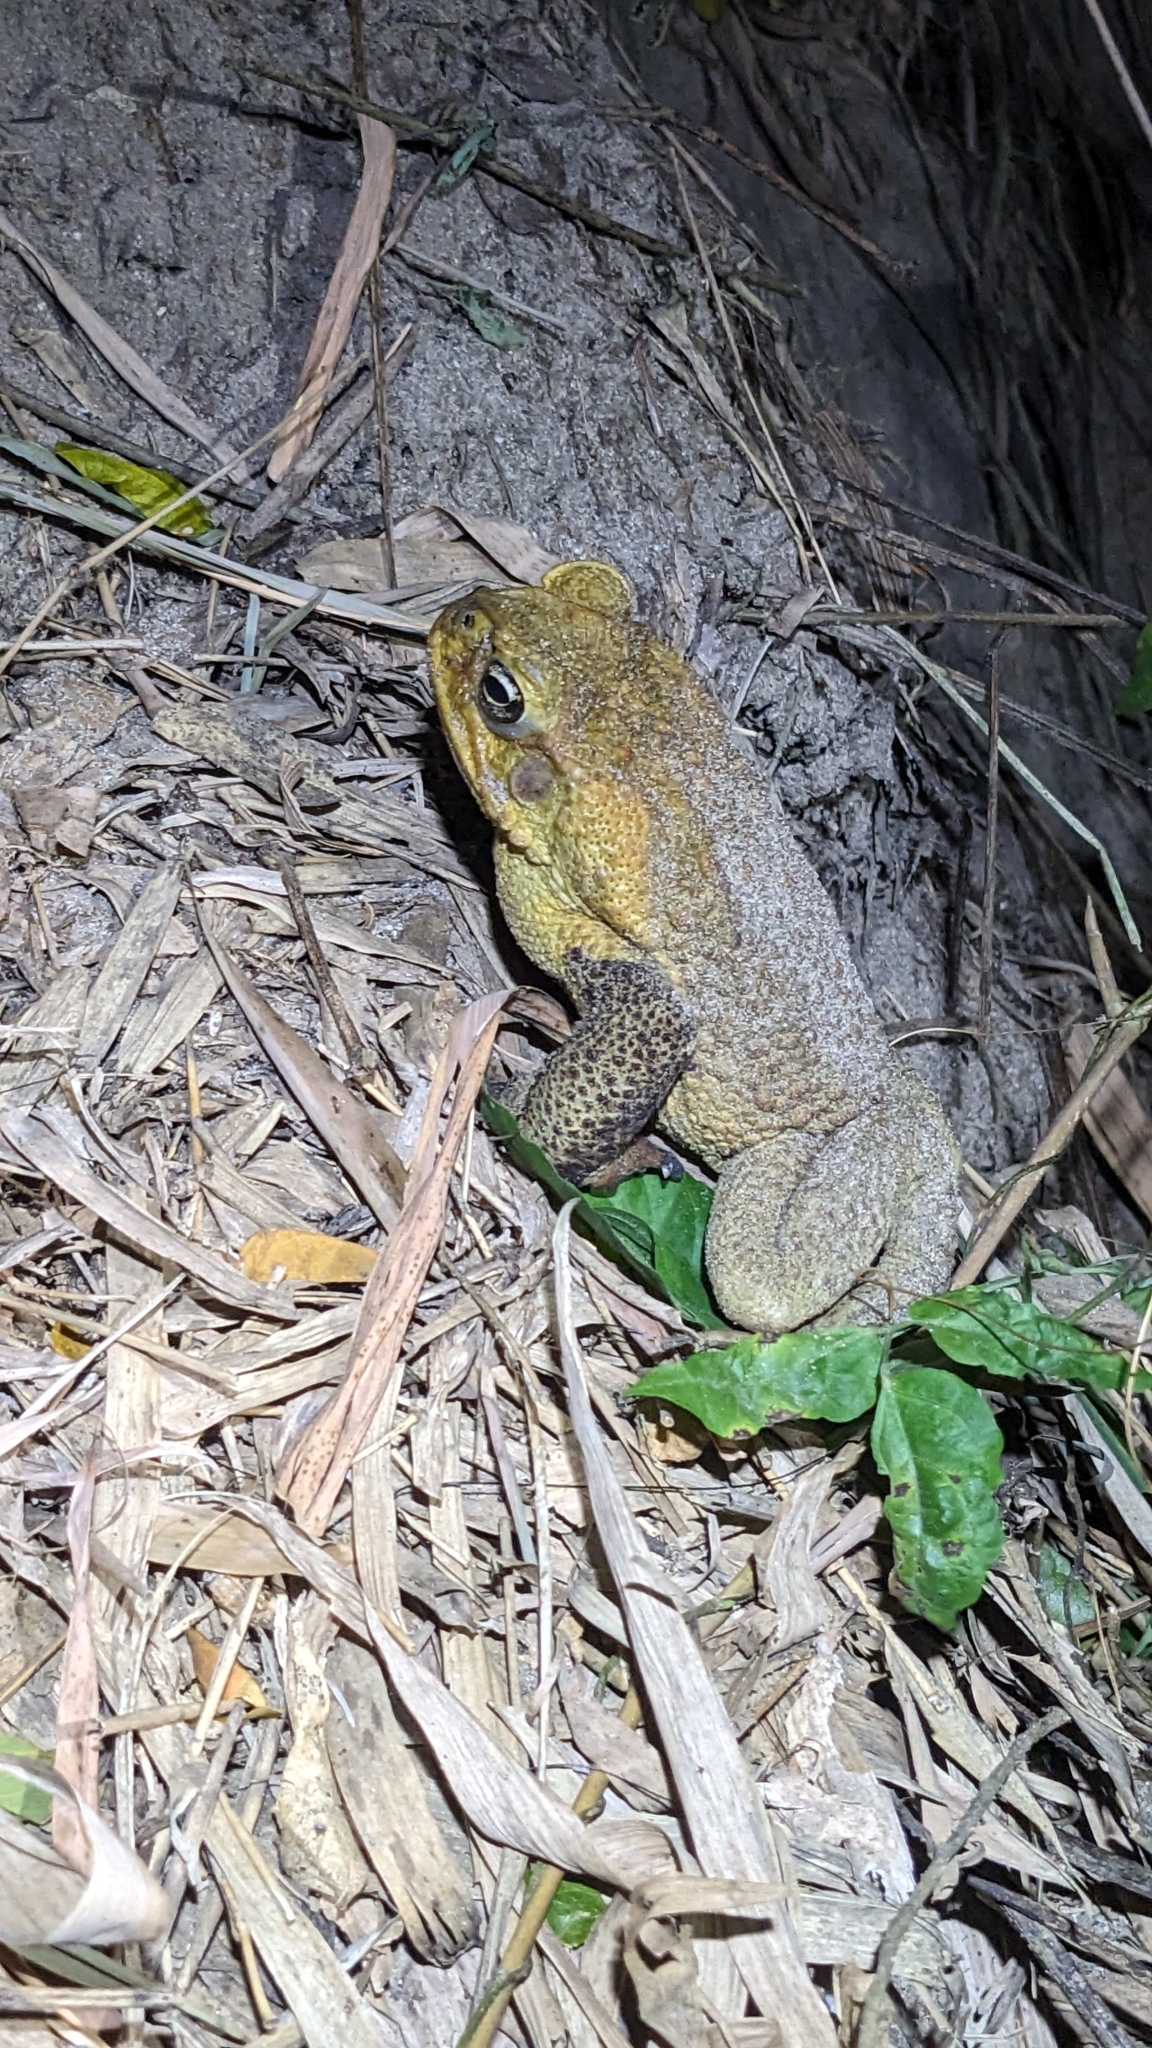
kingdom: Animalia
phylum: Chordata
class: Amphibia
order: Anura
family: Bufonidae
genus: Rhinella
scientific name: Rhinella marina
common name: Cane toad
